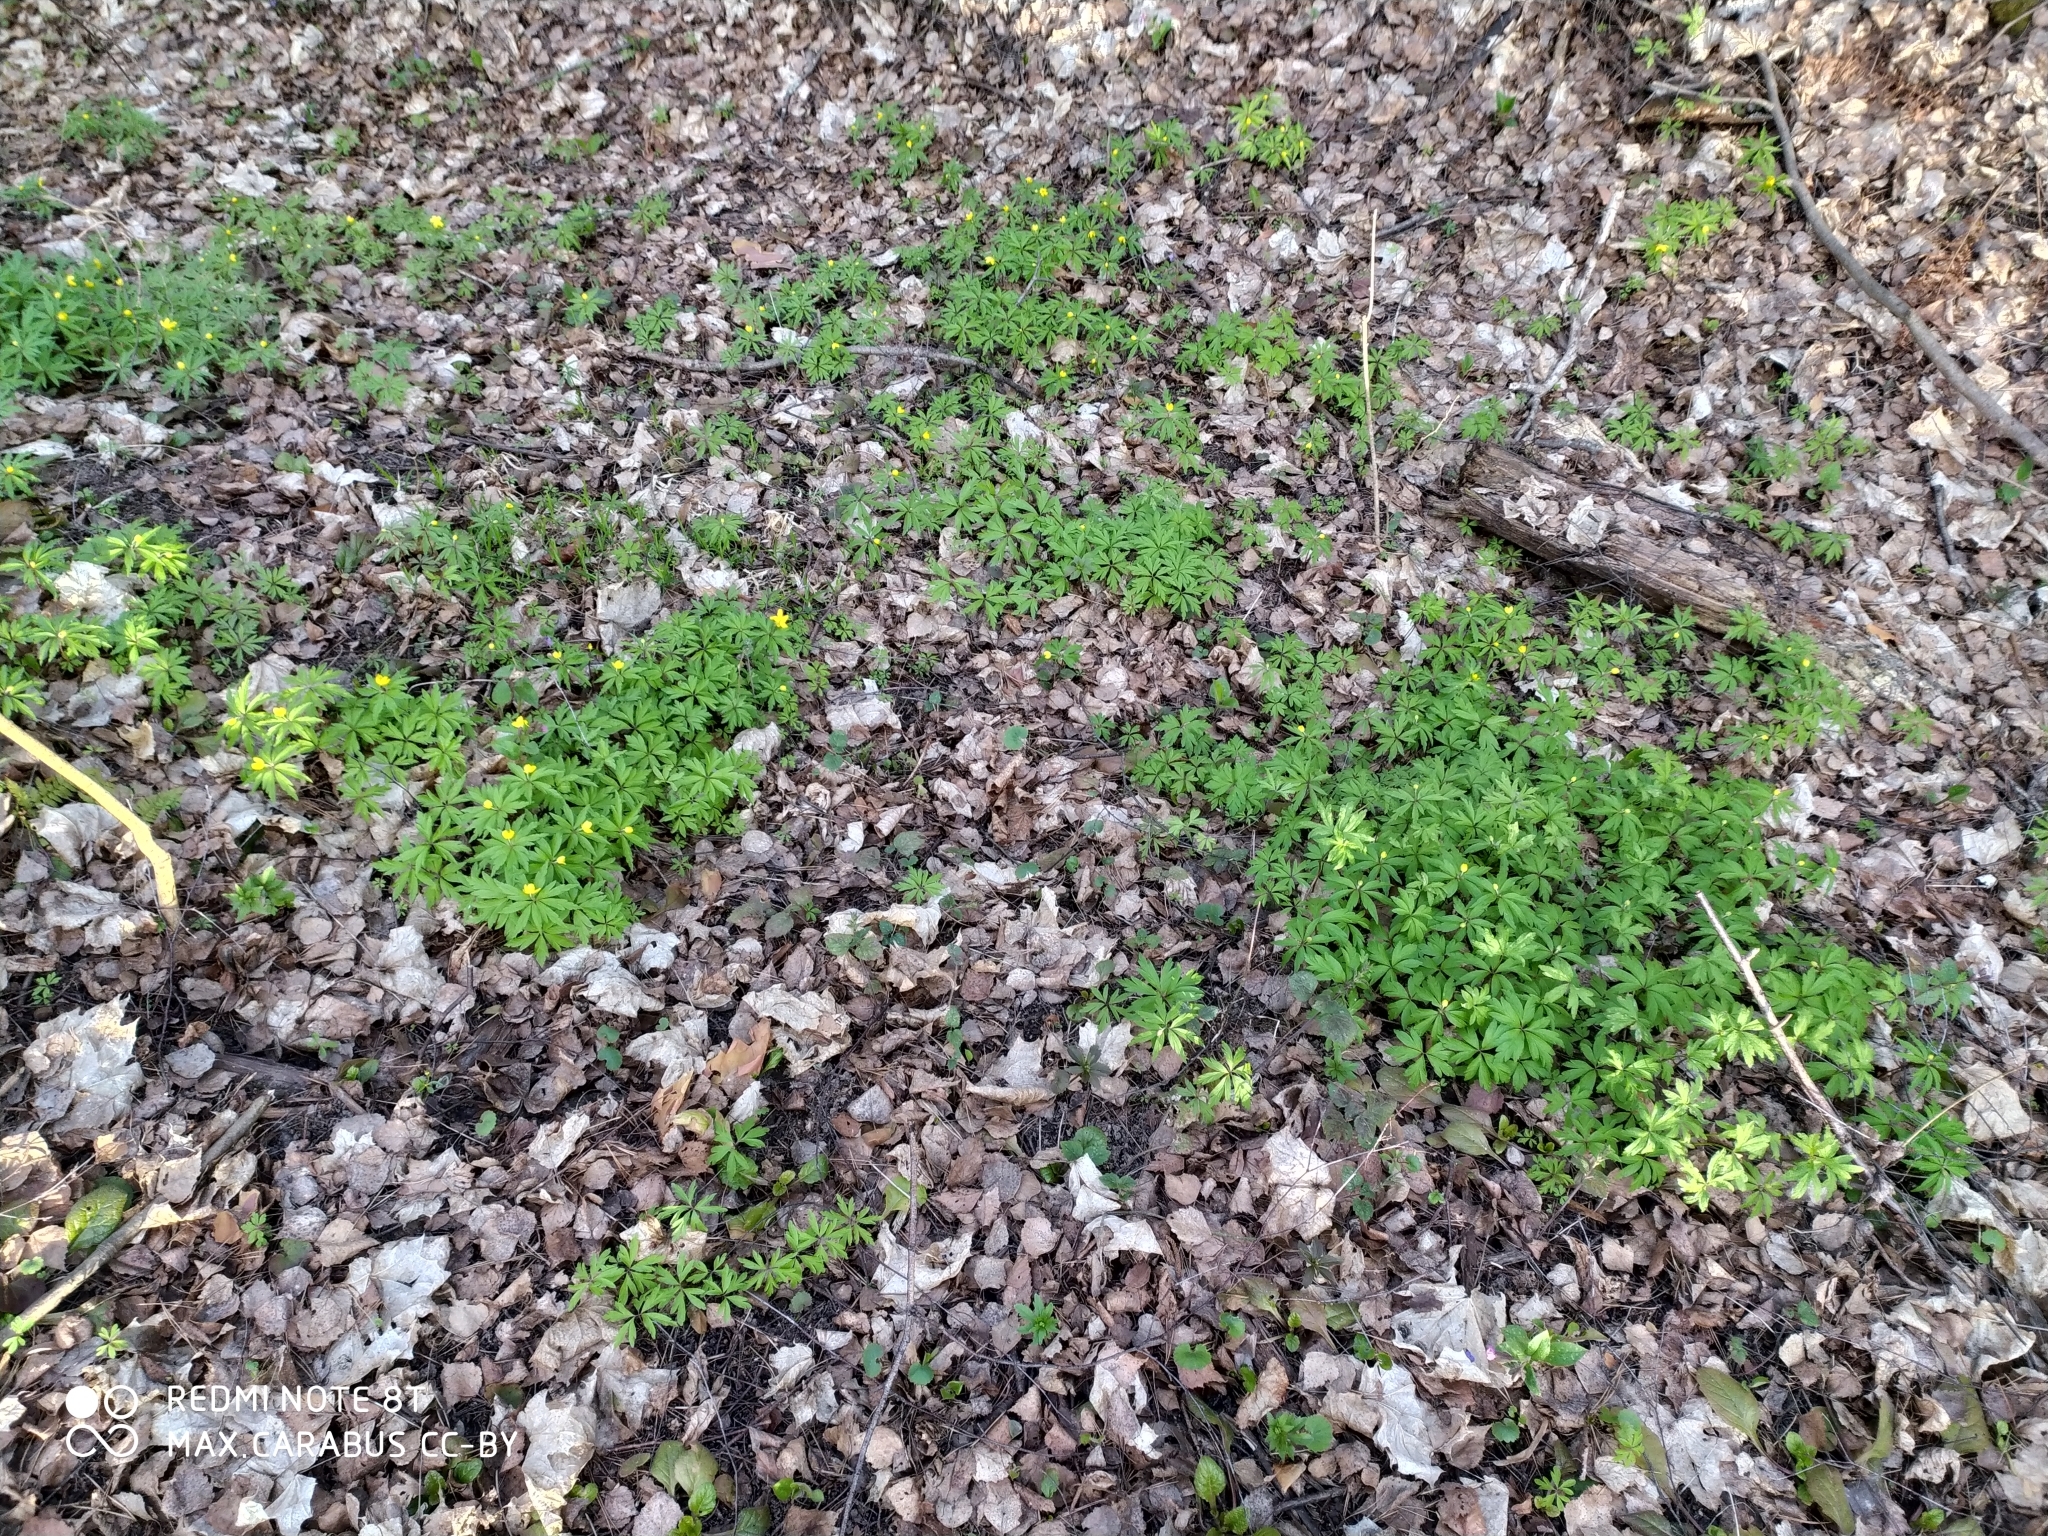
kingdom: Plantae
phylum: Tracheophyta
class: Magnoliopsida
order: Ranunculales
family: Ranunculaceae
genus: Anemone
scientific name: Anemone ranunculoides
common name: Yellow anemone
